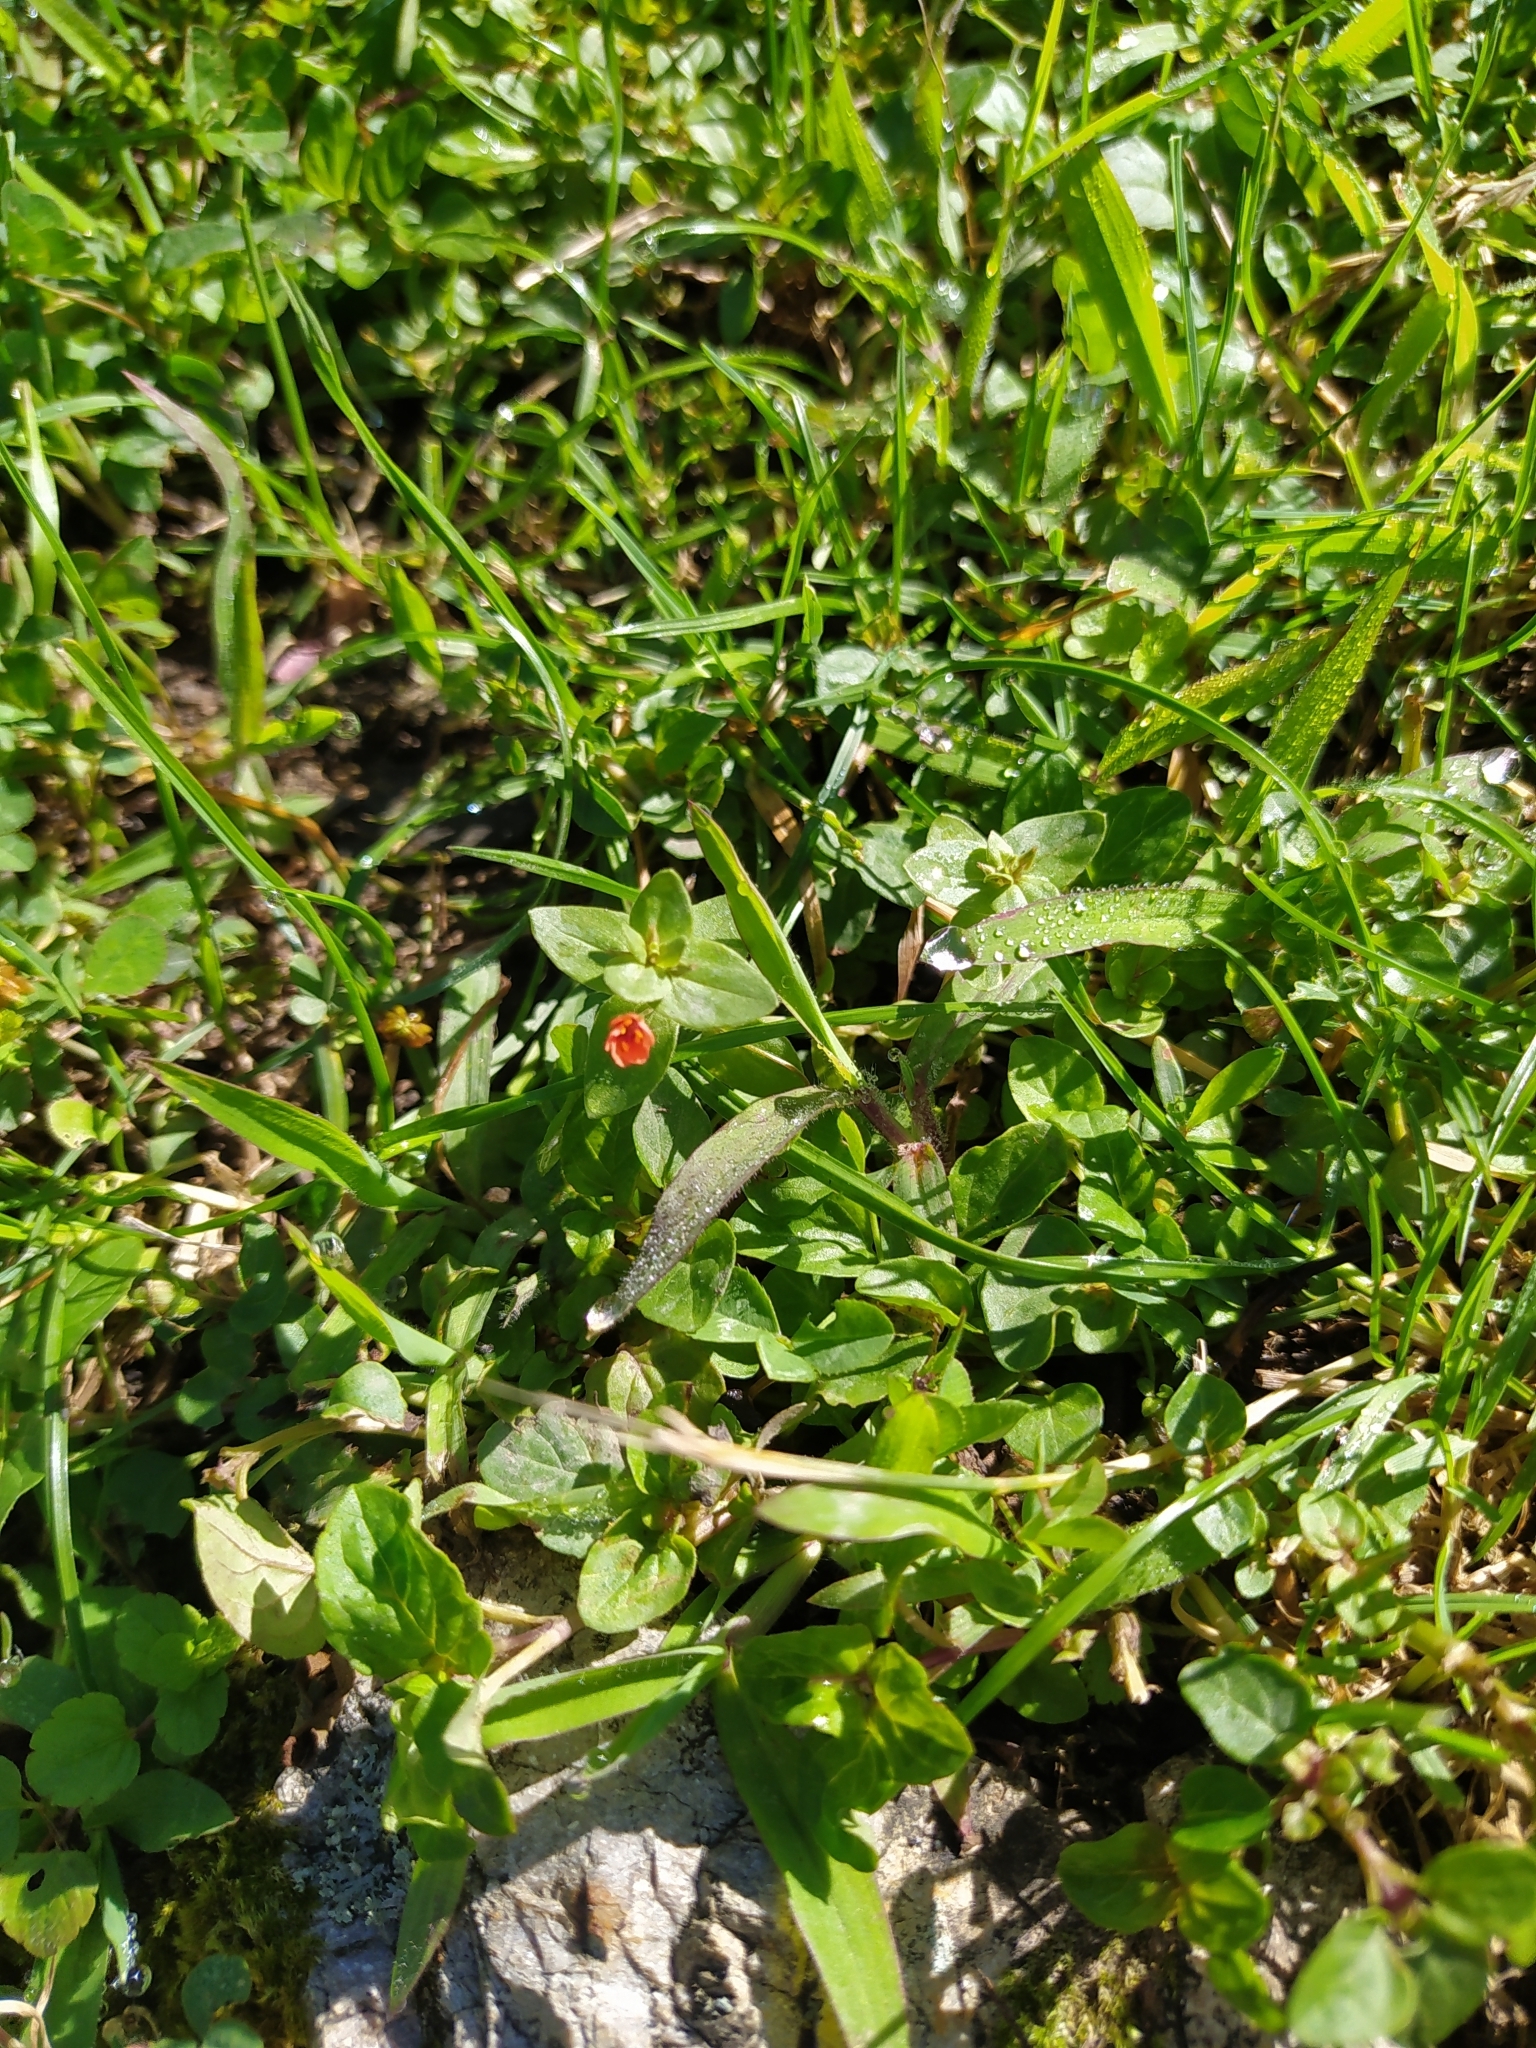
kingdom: Plantae
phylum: Tracheophyta
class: Magnoliopsida
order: Ericales
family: Primulaceae
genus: Lysimachia
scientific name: Lysimachia arvensis
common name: Scarlet pimpernel
